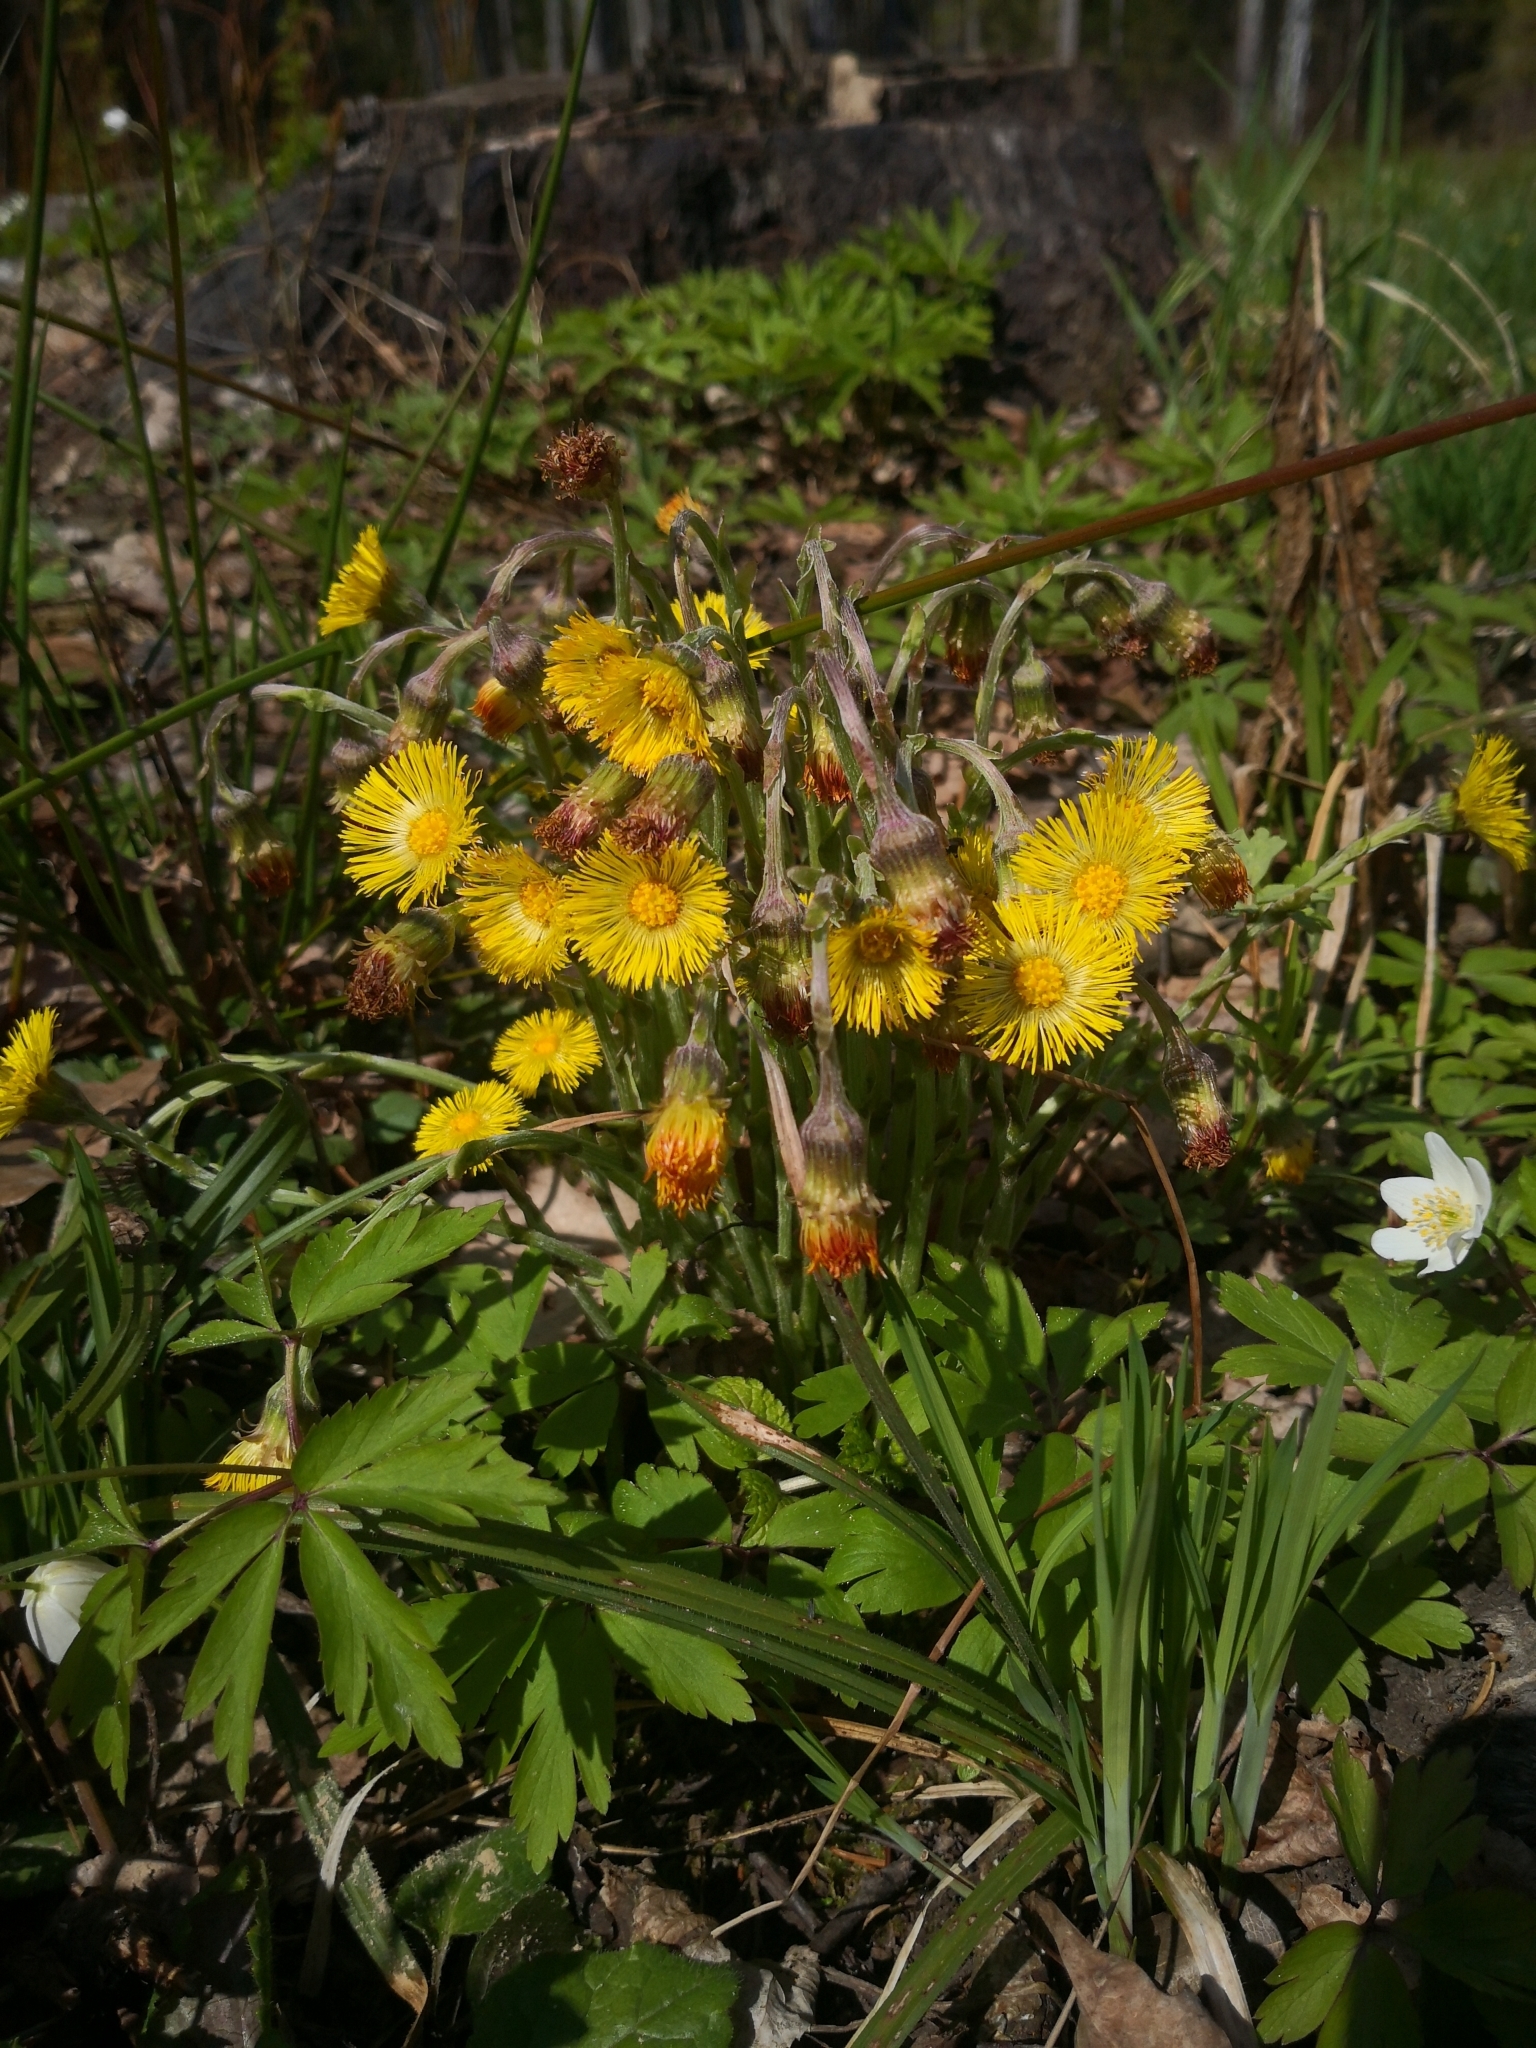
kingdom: Plantae
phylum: Tracheophyta
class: Magnoliopsida
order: Asterales
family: Asteraceae
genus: Tussilago
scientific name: Tussilago farfara
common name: Coltsfoot
